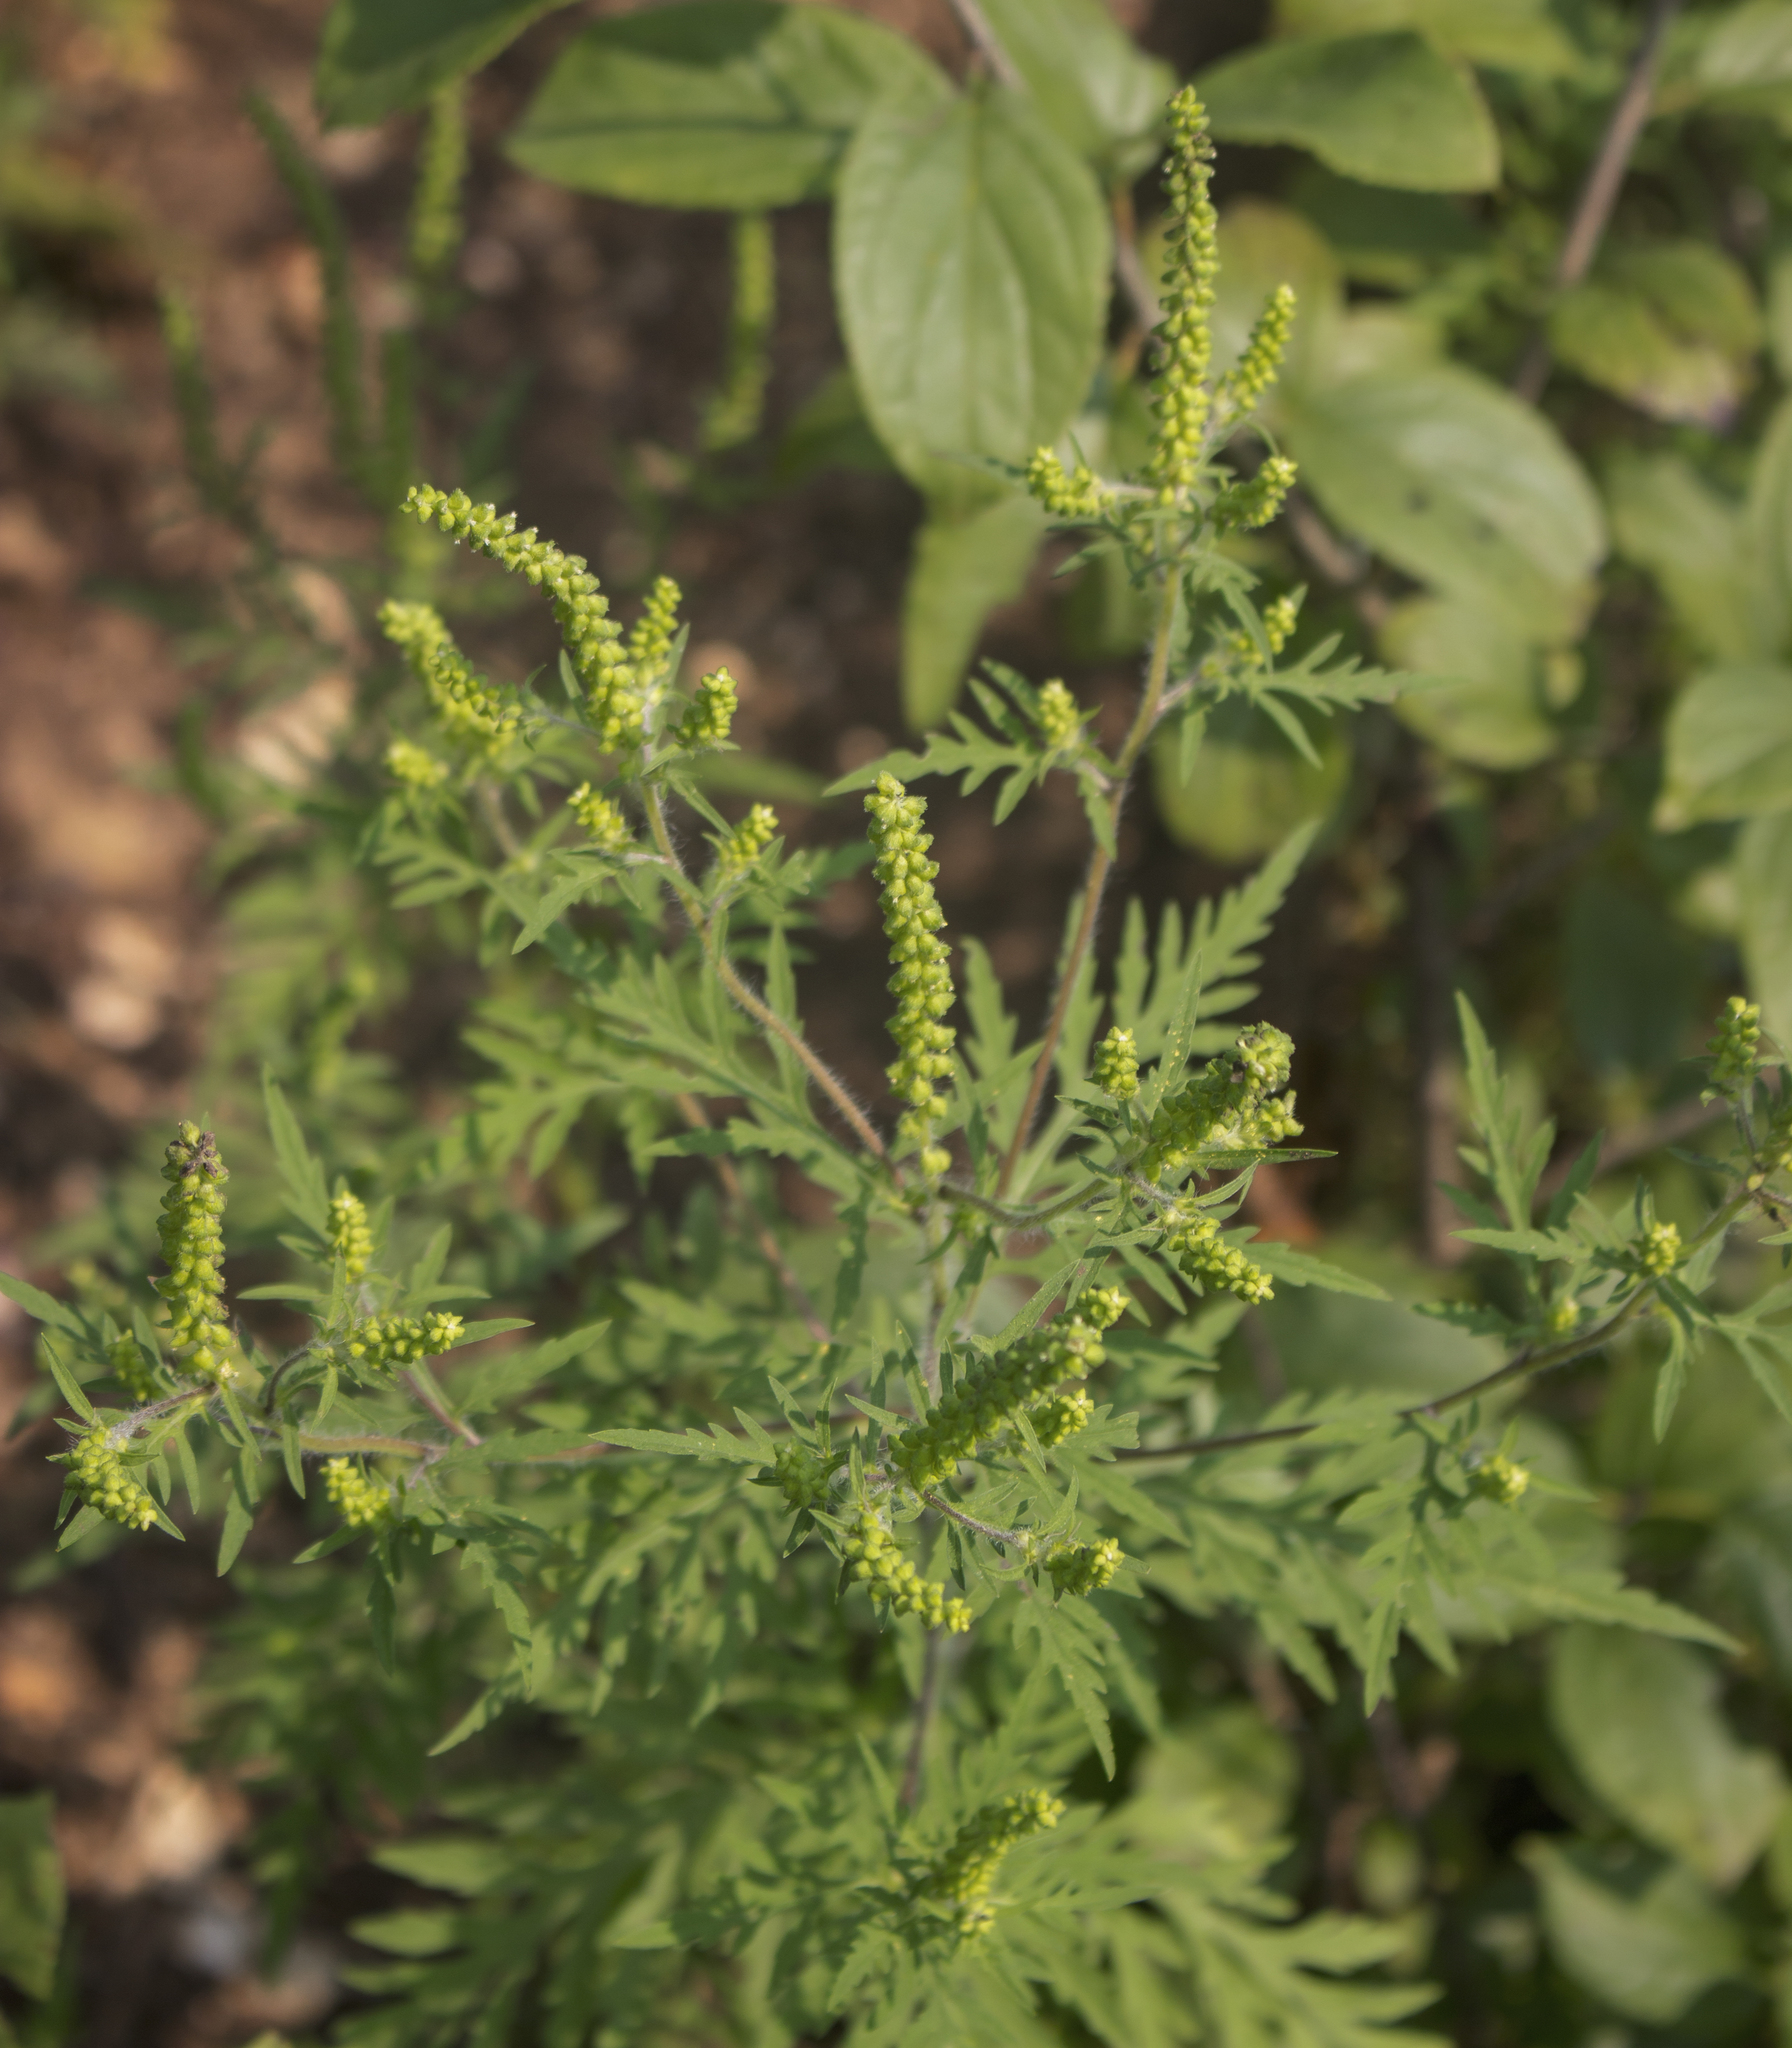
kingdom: Plantae
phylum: Tracheophyta
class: Magnoliopsida
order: Asterales
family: Asteraceae
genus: Ambrosia
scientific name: Ambrosia artemisiifolia
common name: Annual ragweed
